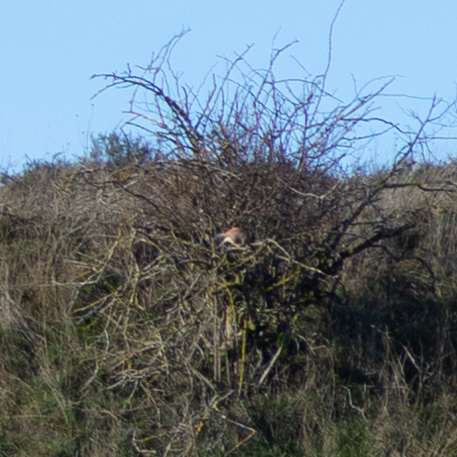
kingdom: Animalia
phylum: Chordata
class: Aves
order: Falconiformes
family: Falconidae
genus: Falco
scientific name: Falco tinnunculus
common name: Common kestrel
